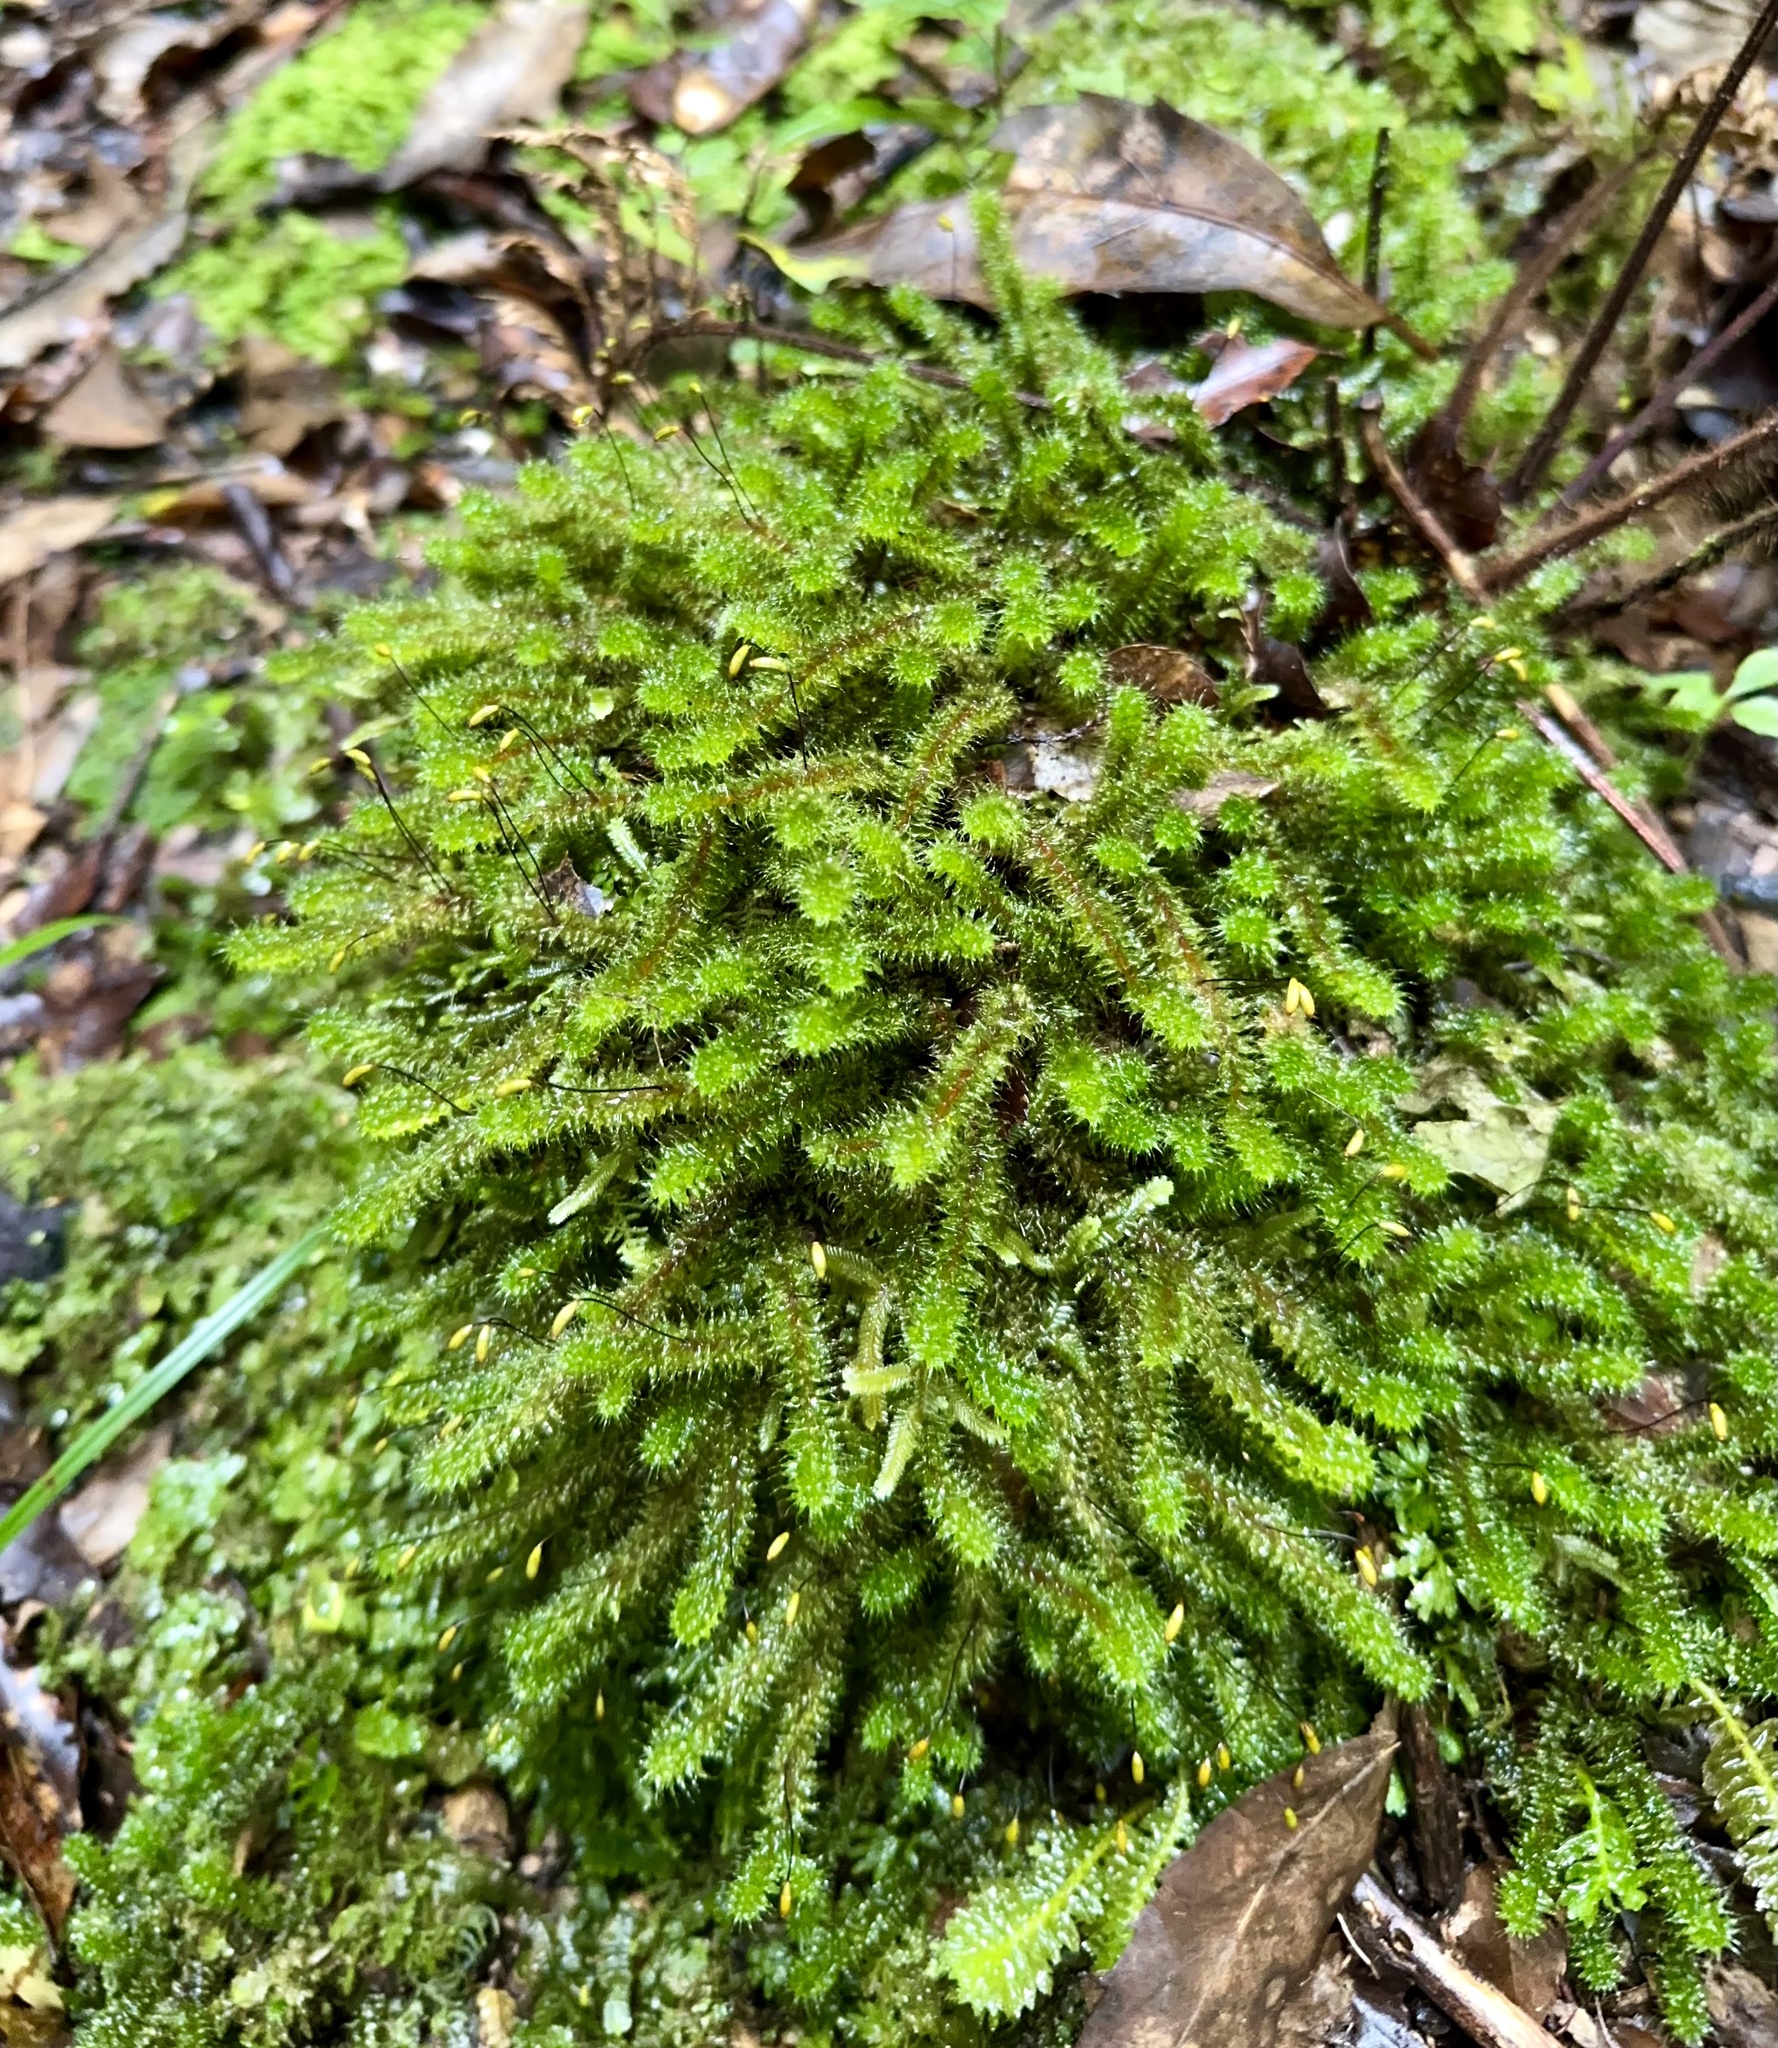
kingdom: Plantae
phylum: Bryophyta
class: Bryopsida
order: Ptychomniales
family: Ptychomniaceae
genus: Ptychomnion
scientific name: Ptychomnion aciculare
